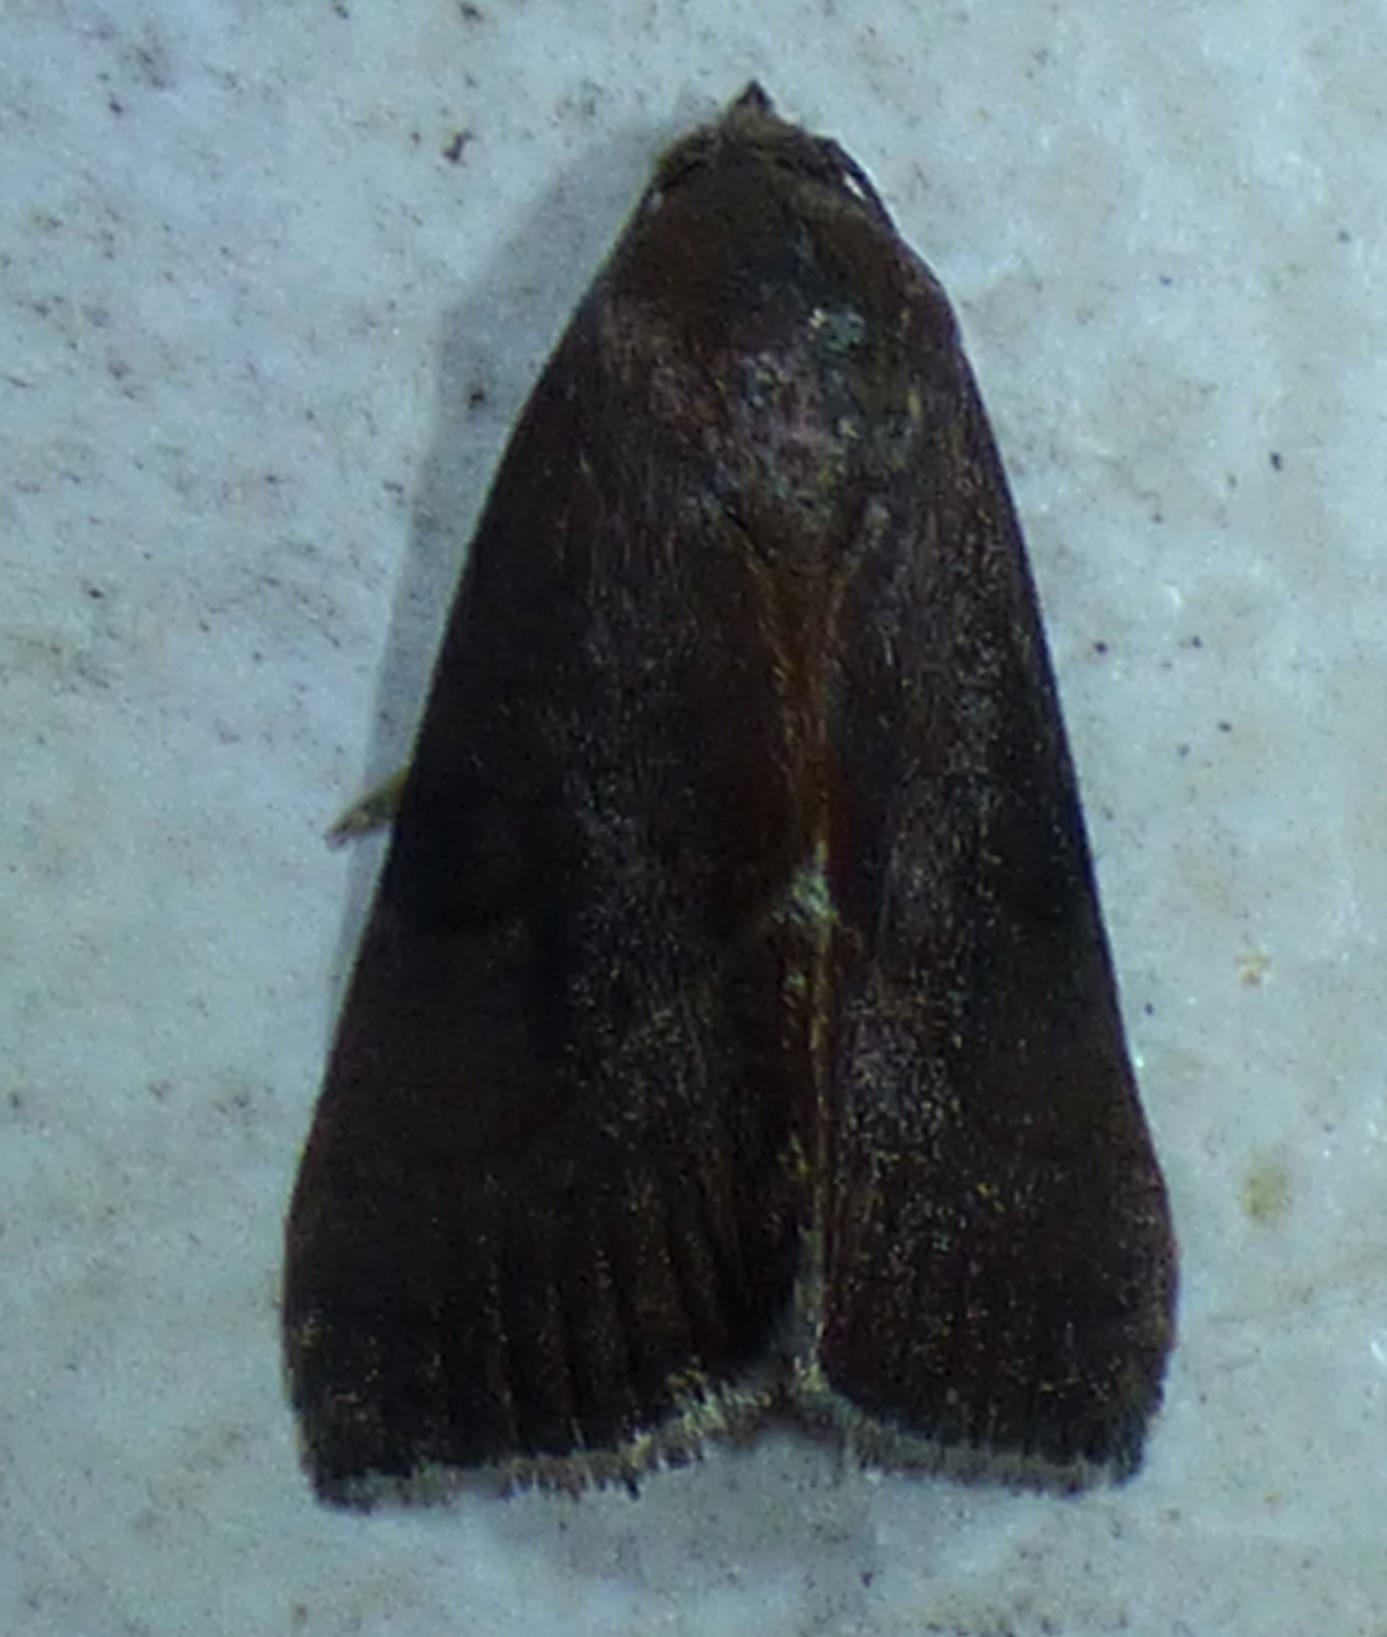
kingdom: Animalia
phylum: Arthropoda
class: Insecta
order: Lepidoptera
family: Noctuidae
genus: Galgula
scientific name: Galgula partita
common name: Wedgeling
